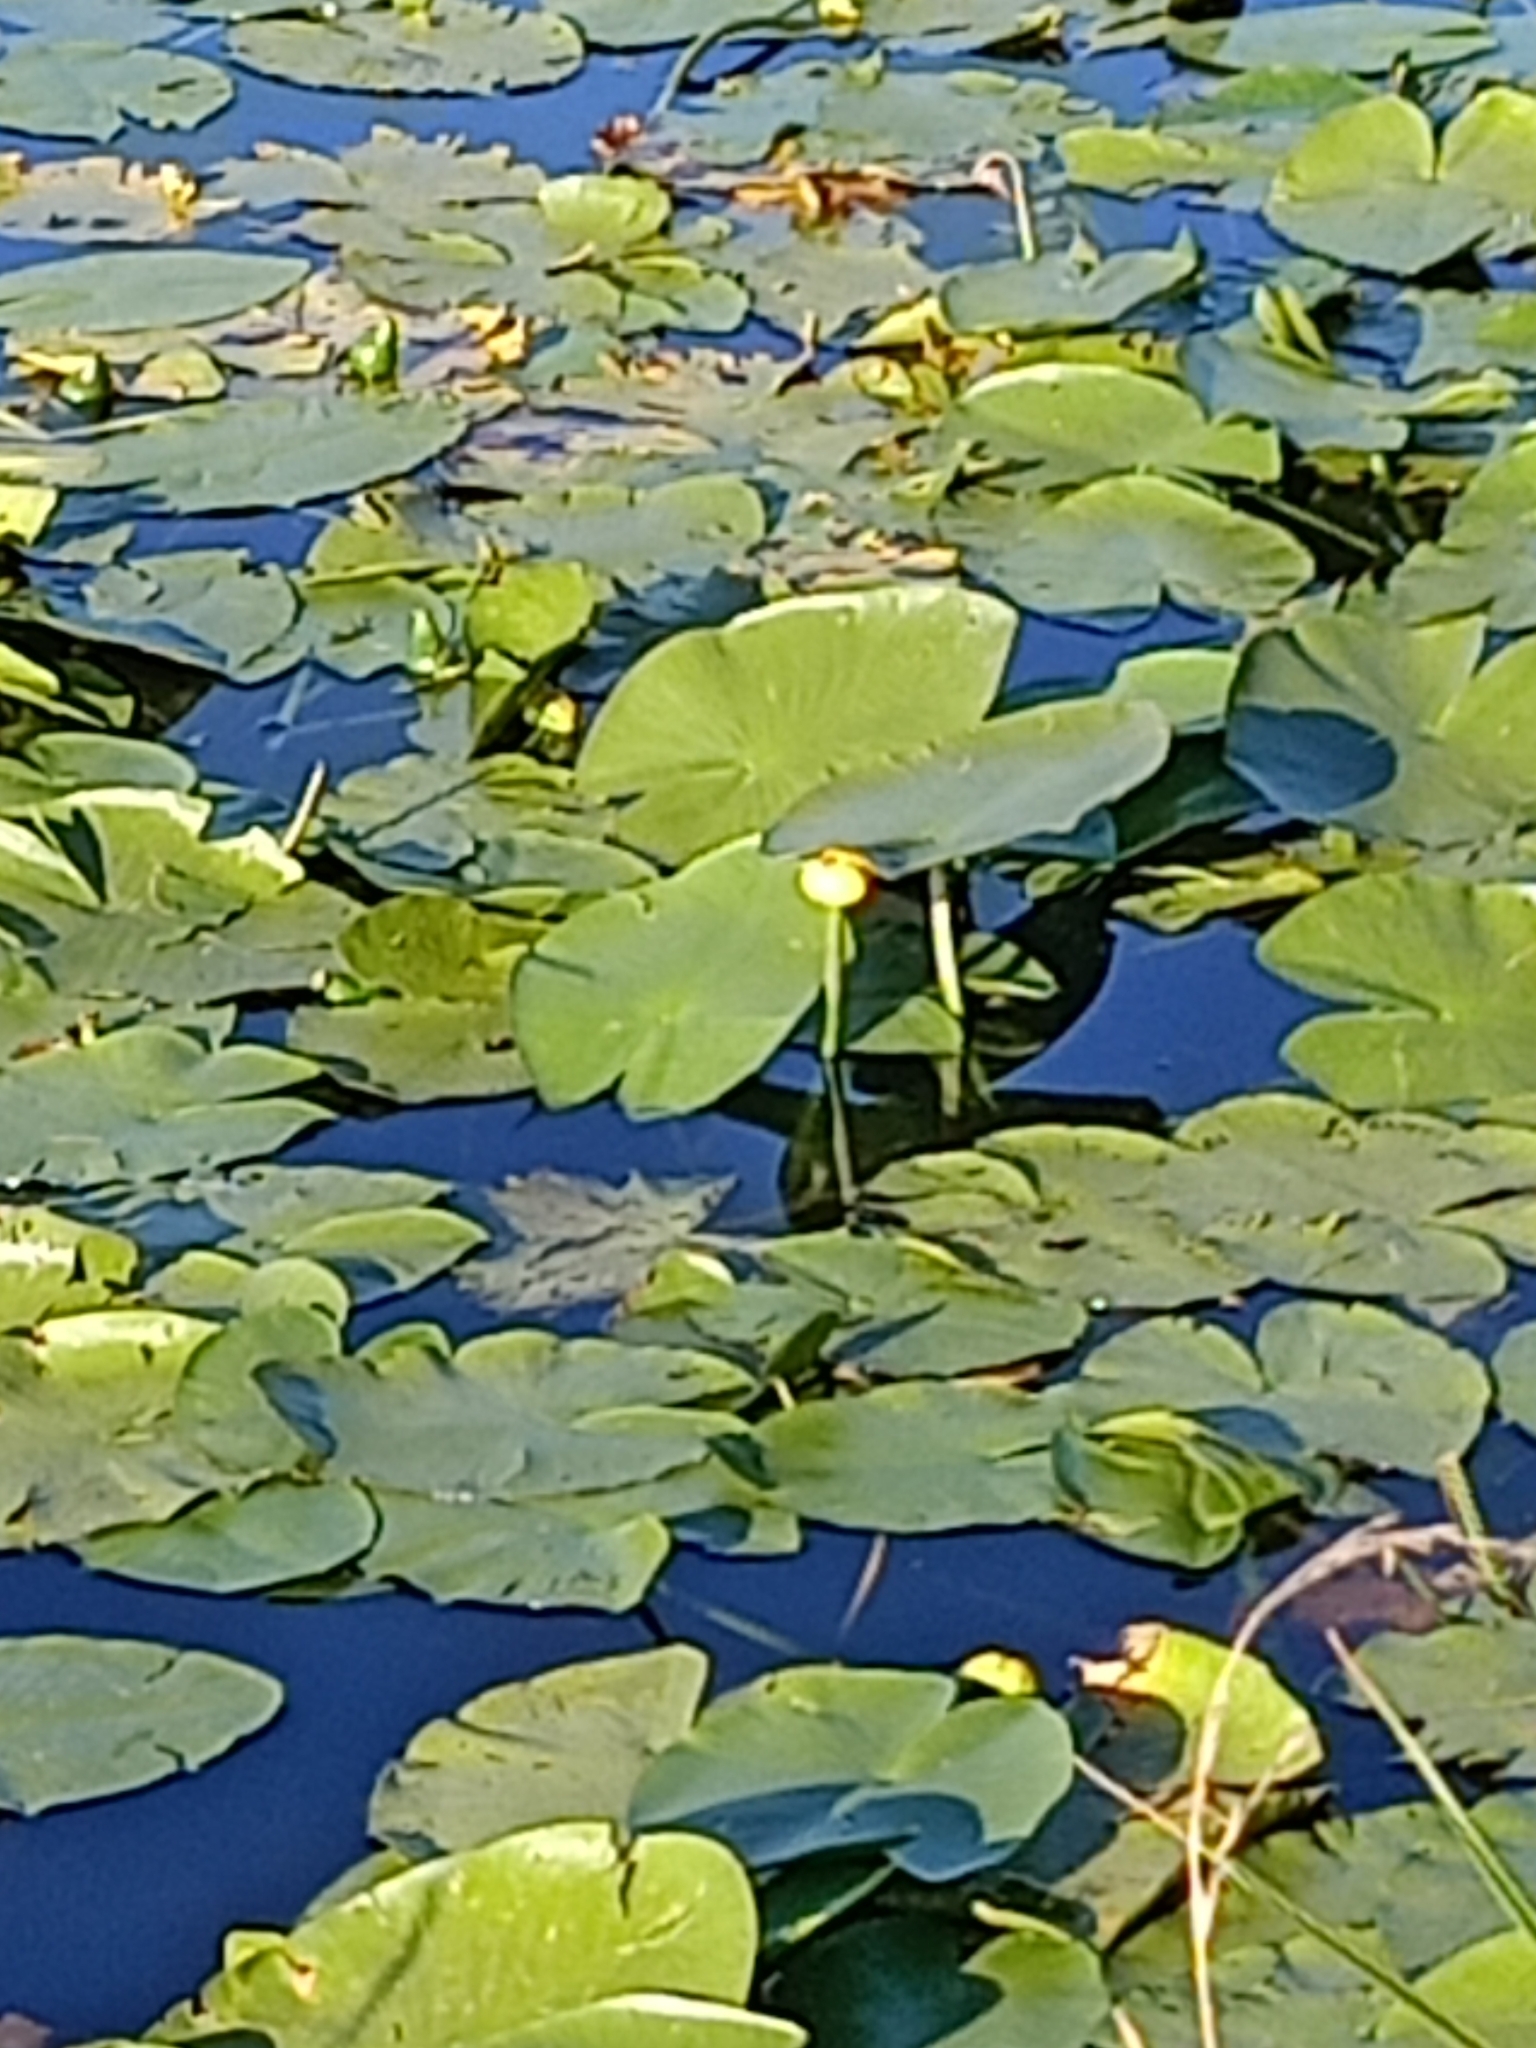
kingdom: Plantae
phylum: Tracheophyta
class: Magnoliopsida
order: Nymphaeales
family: Nymphaeaceae
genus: Nuphar
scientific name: Nuphar lutea
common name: Yellow water-lily
